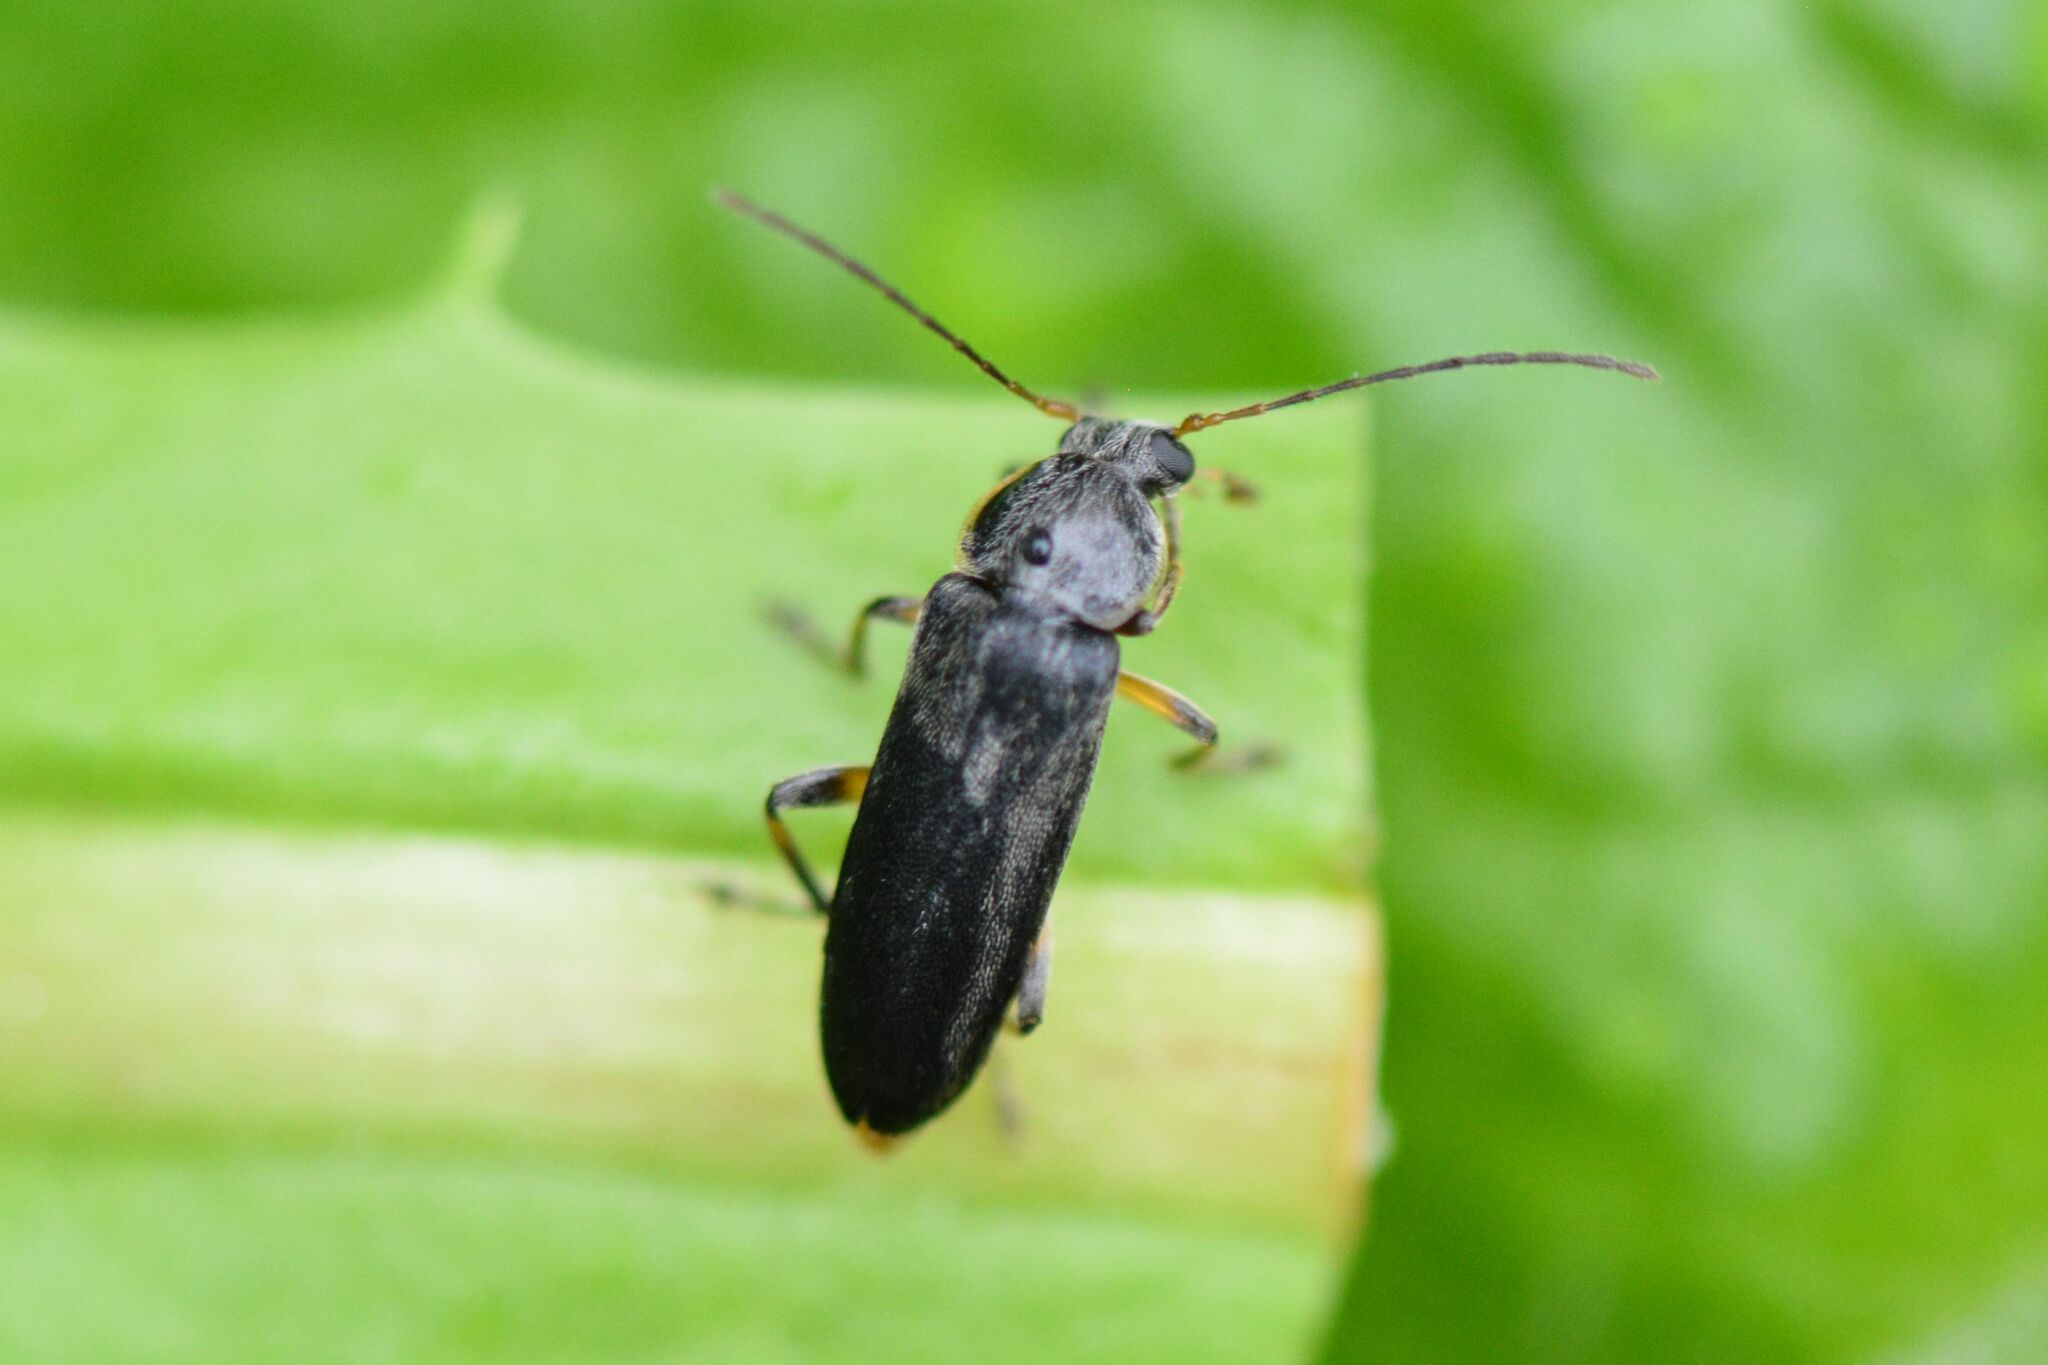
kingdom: Animalia
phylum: Arthropoda
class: Insecta
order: Coleoptera
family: Melandryidae
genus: Osphya
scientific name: Osphya bipunctata
